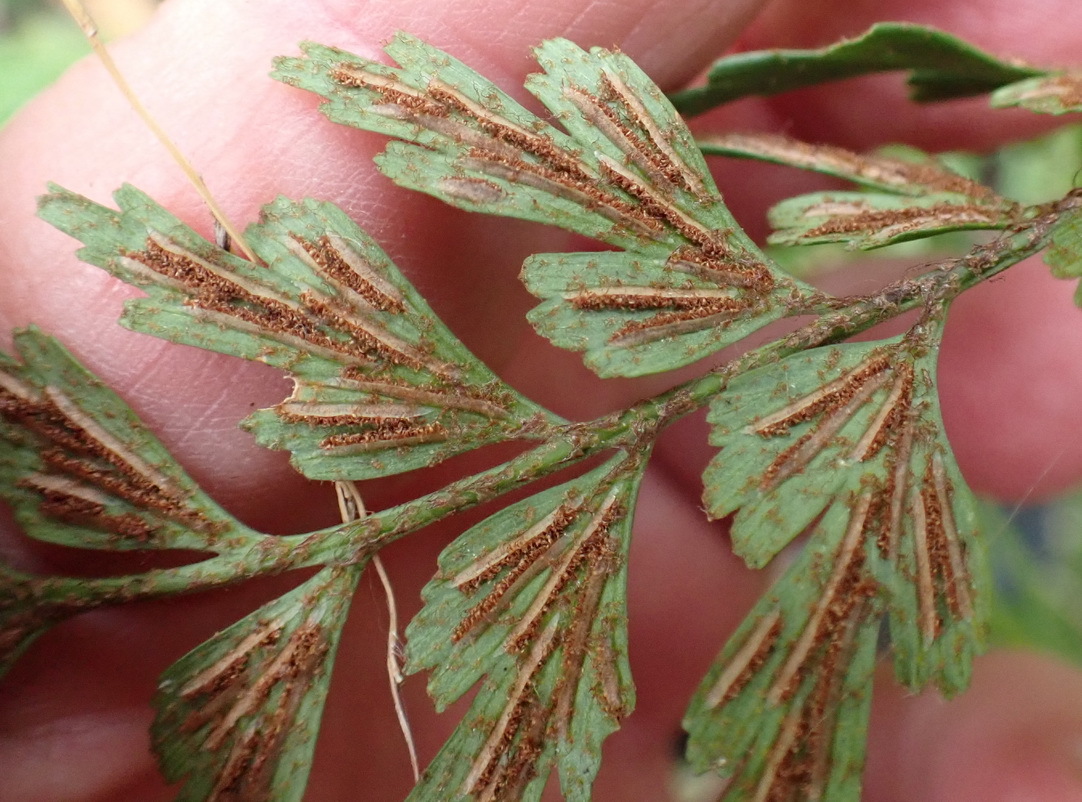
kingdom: Plantae
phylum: Tracheophyta
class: Polypodiopsida
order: Polypodiales
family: Aspleniaceae
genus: Asplenium
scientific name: Asplenium aethiopicum
